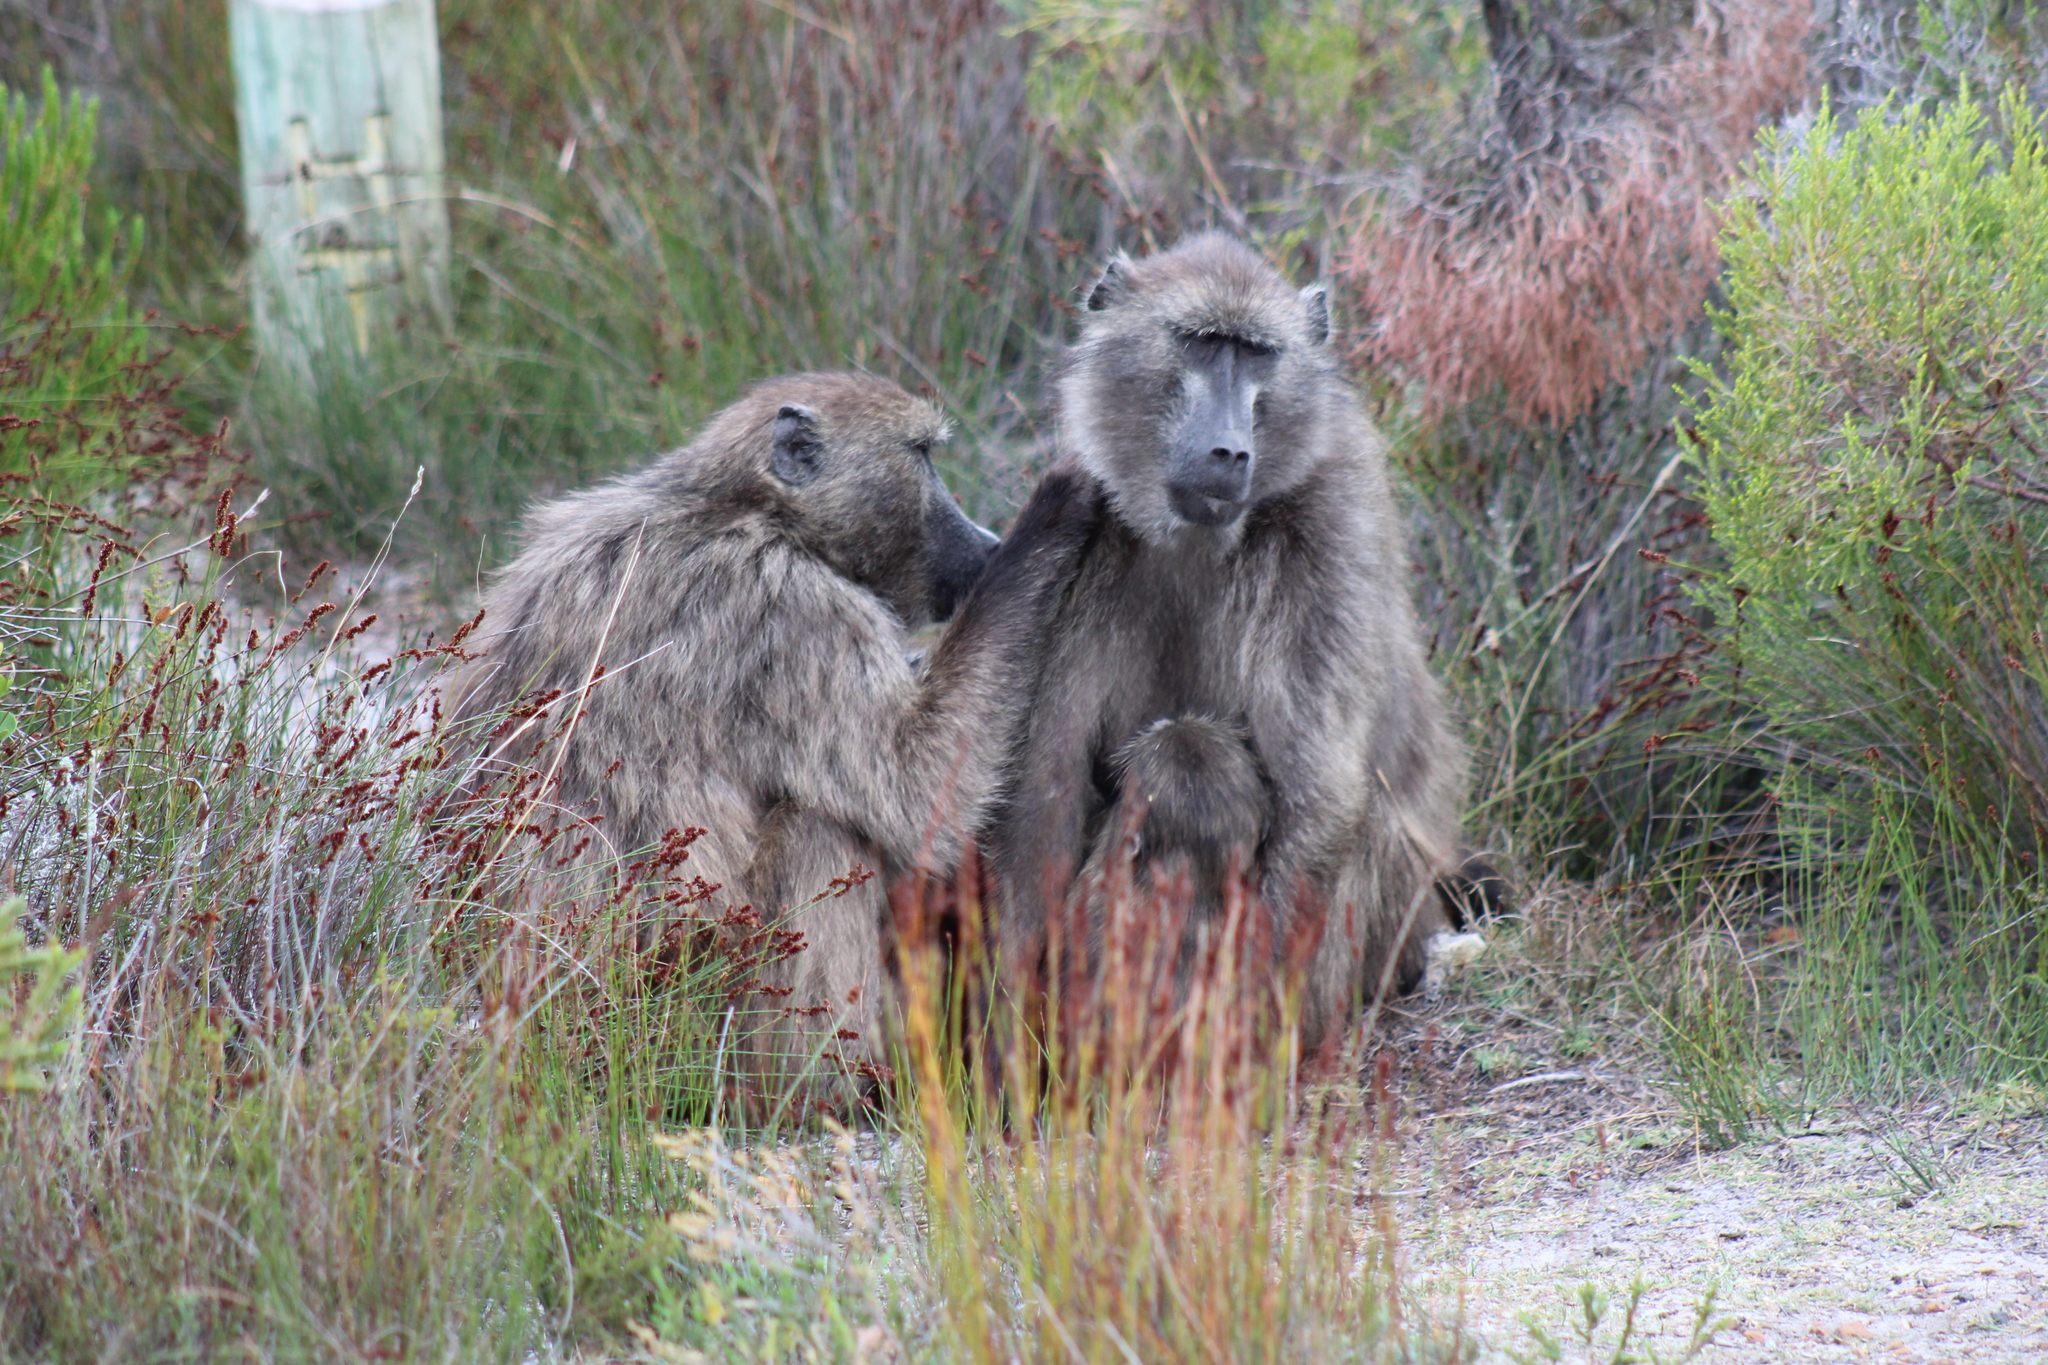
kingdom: Animalia
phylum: Chordata
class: Mammalia
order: Primates
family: Cercopithecidae
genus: Papio
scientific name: Papio ursinus
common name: Chacma baboon
